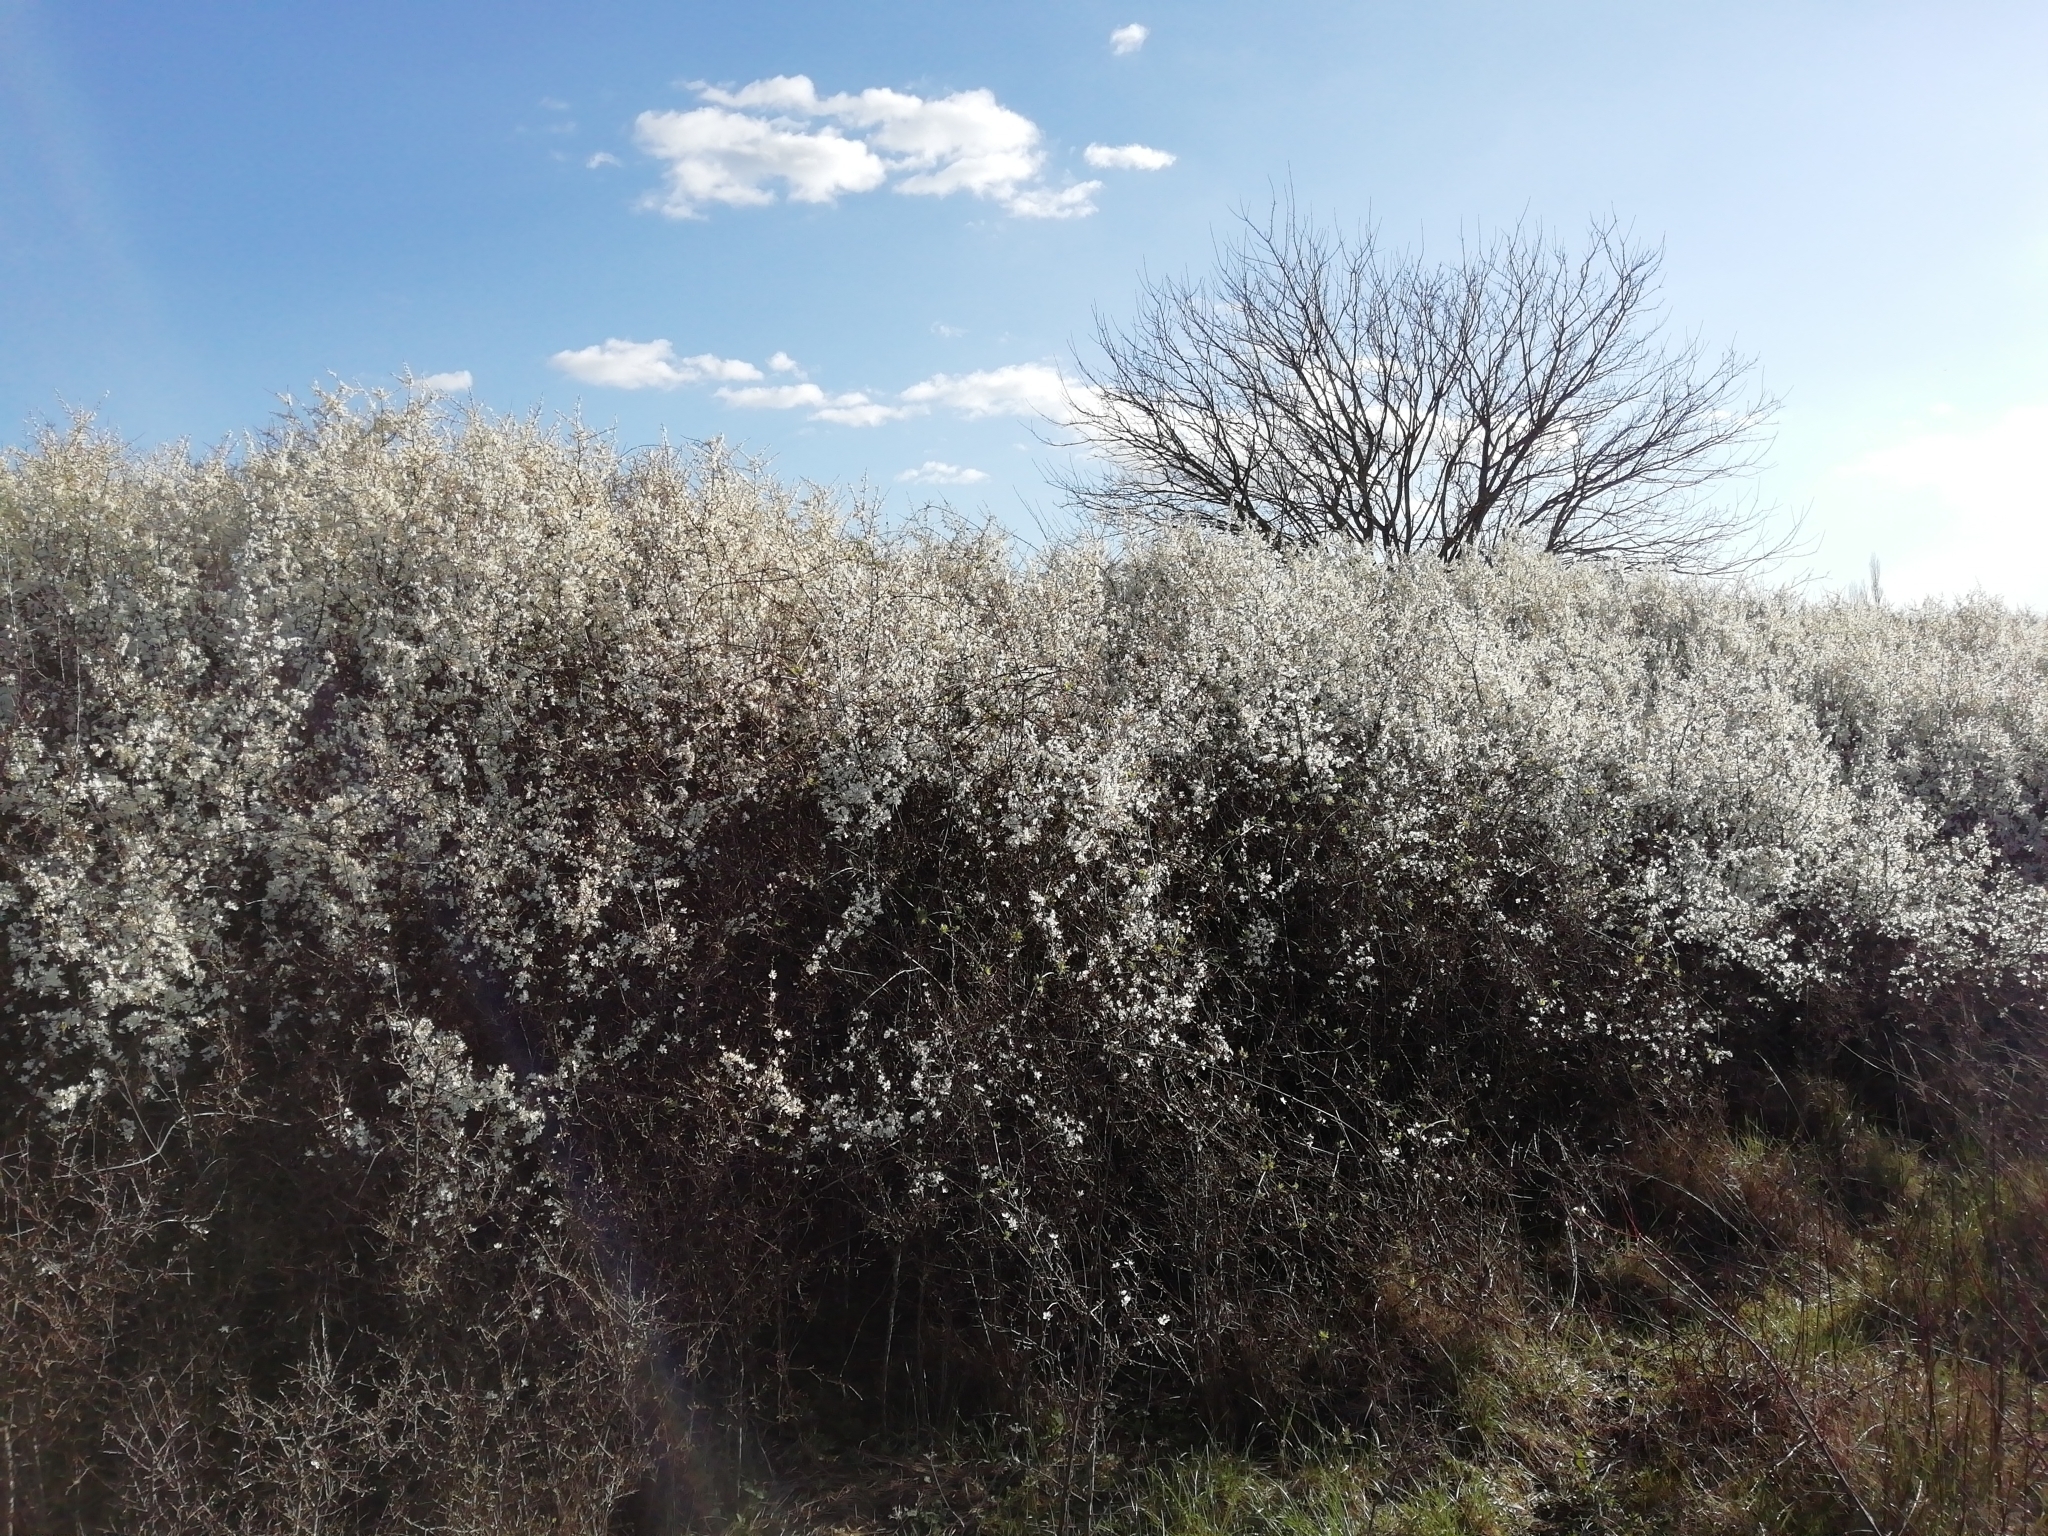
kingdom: Plantae
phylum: Tracheophyta
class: Magnoliopsida
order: Rosales
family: Rosaceae
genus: Prunus
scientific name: Prunus spinosa
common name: Blackthorn
